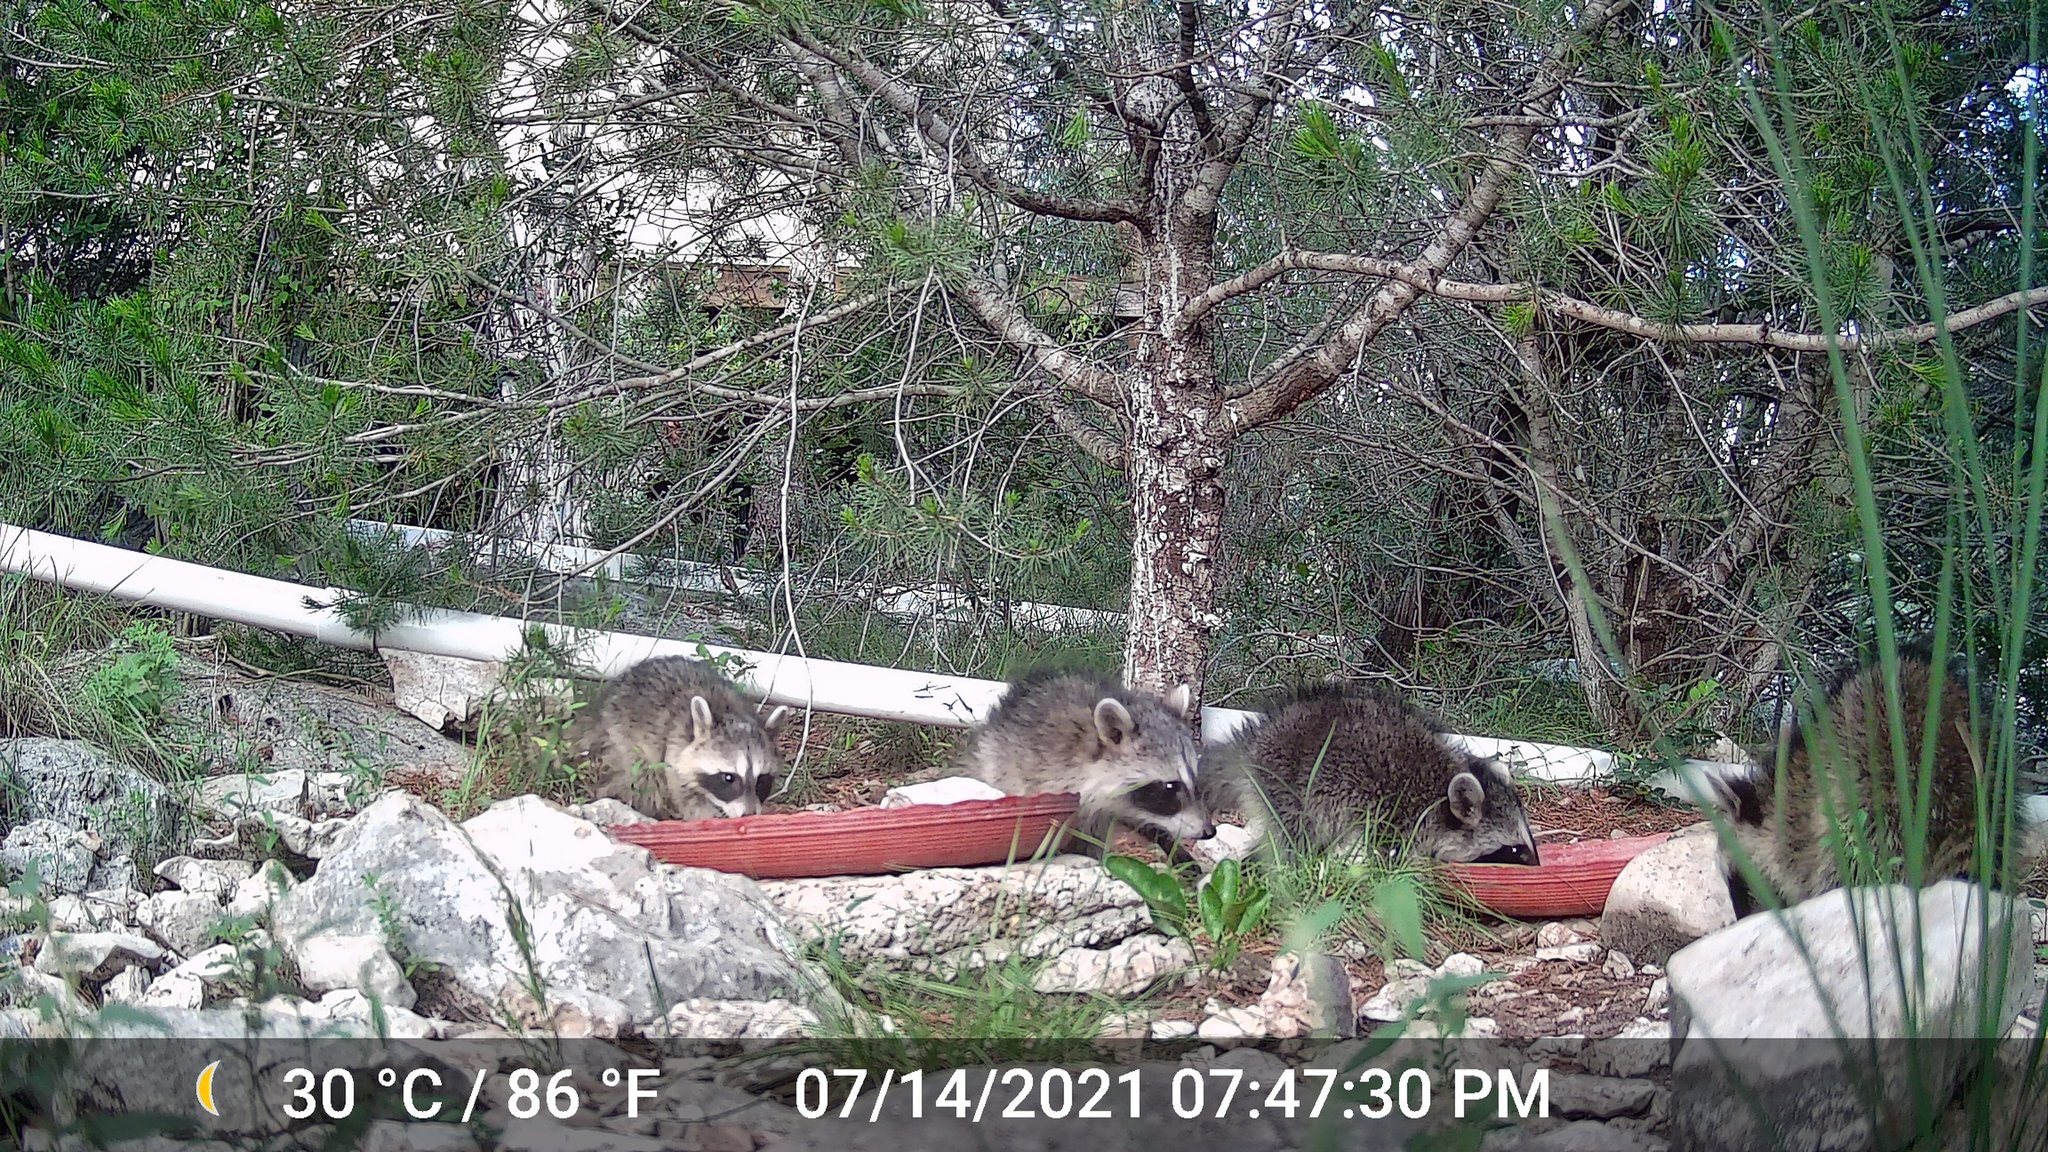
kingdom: Animalia
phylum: Chordata
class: Mammalia
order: Carnivora
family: Procyonidae
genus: Procyon
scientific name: Procyon lotor
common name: Raccoon
